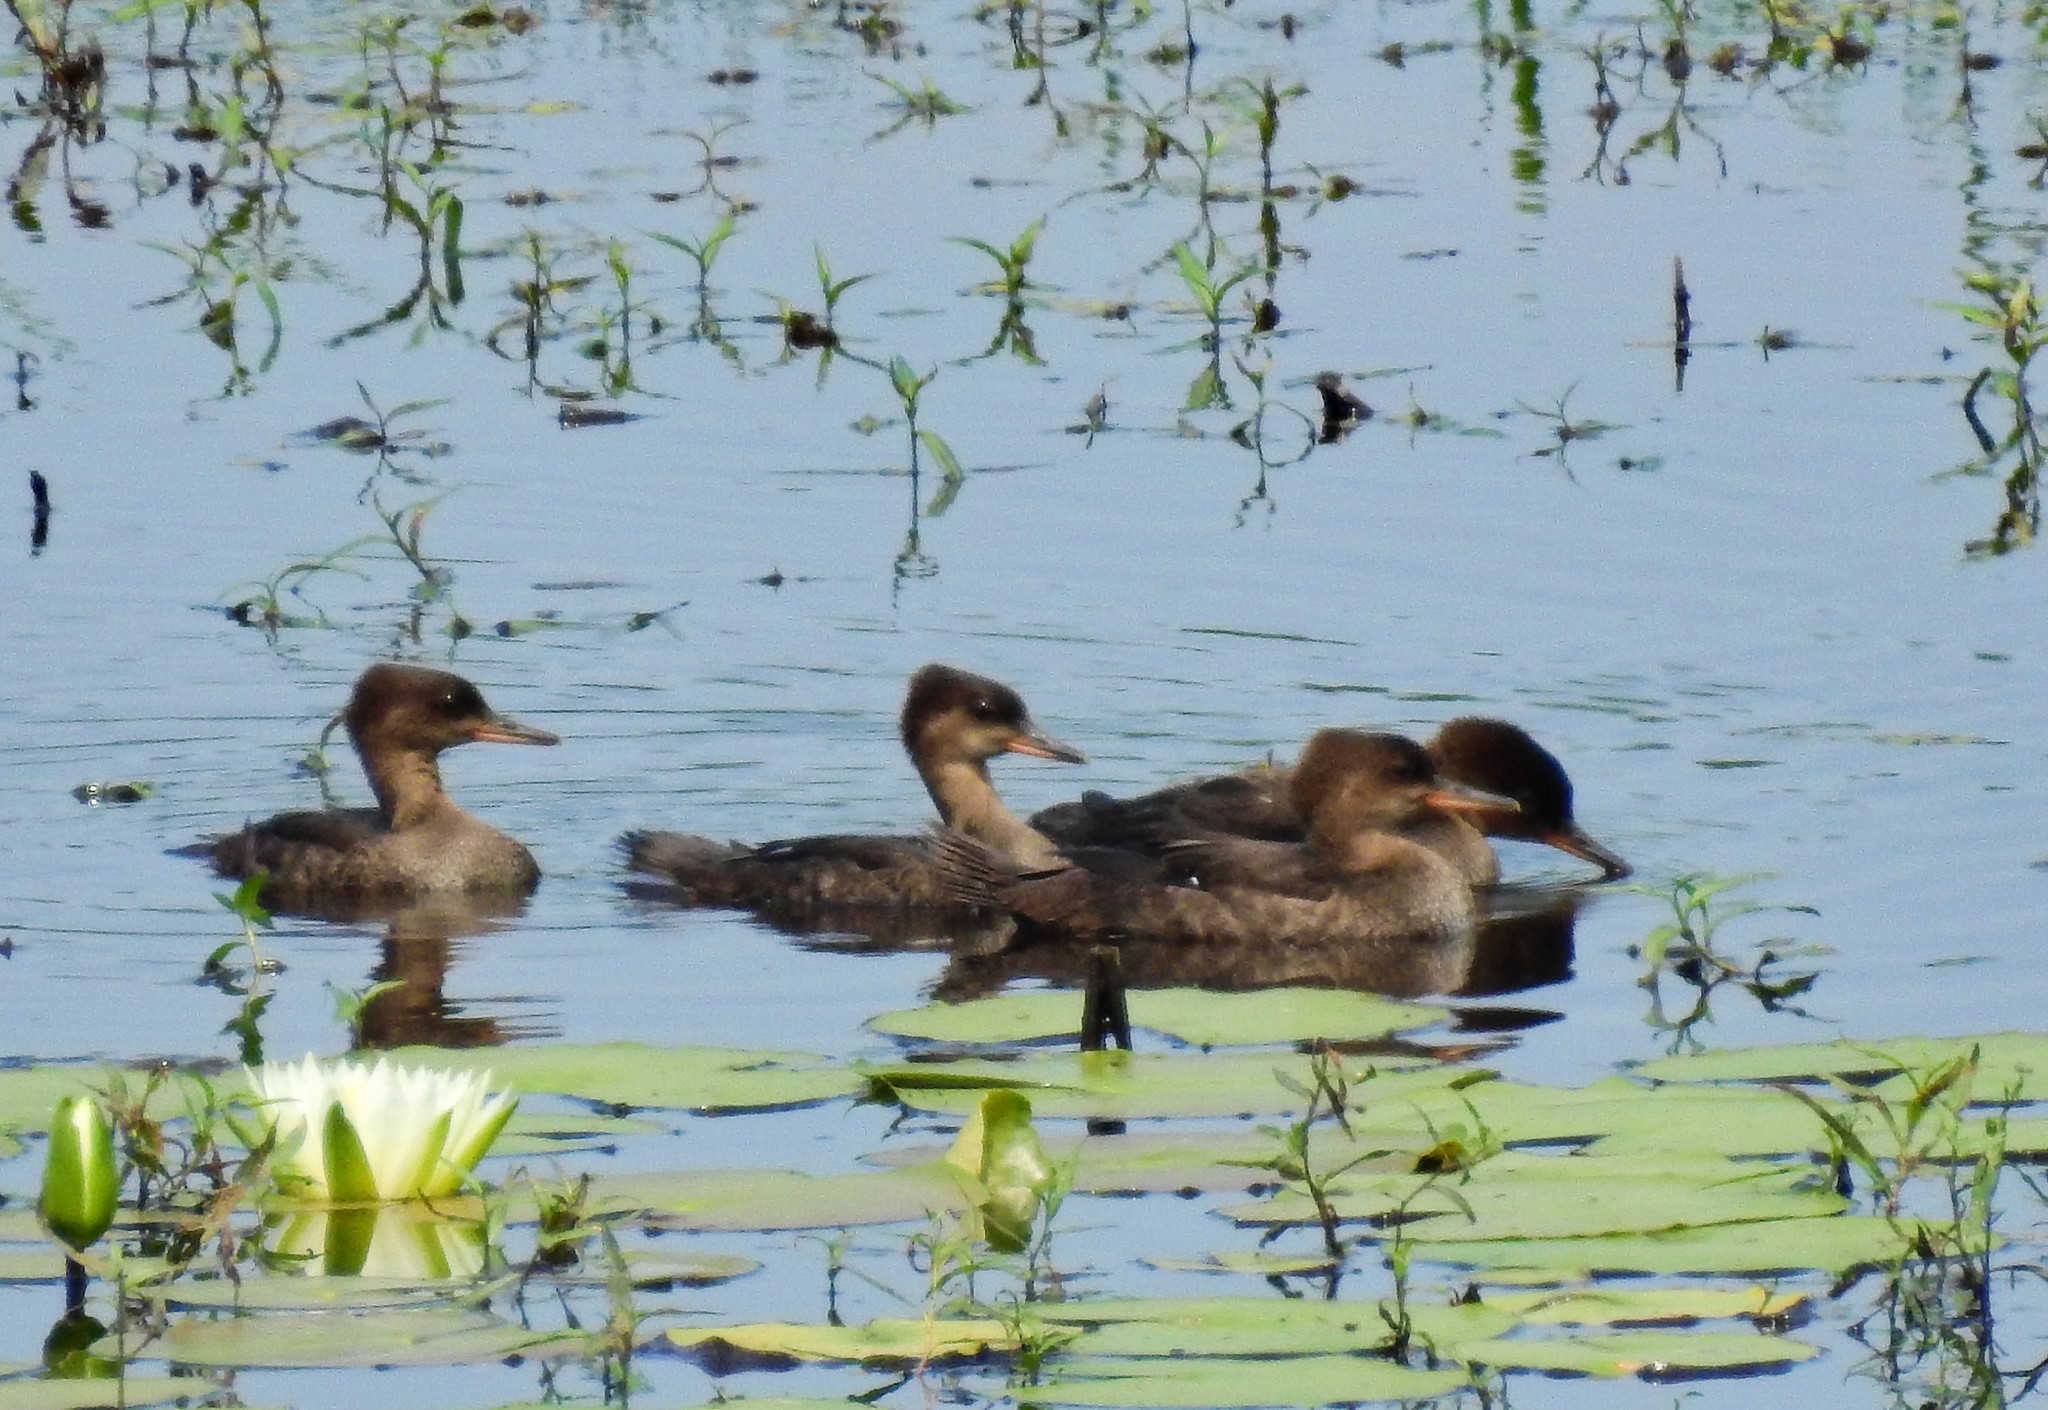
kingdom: Animalia
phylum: Chordata
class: Aves
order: Anseriformes
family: Anatidae
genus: Lophodytes
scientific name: Lophodytes cucullatus
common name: Hooded merganser
